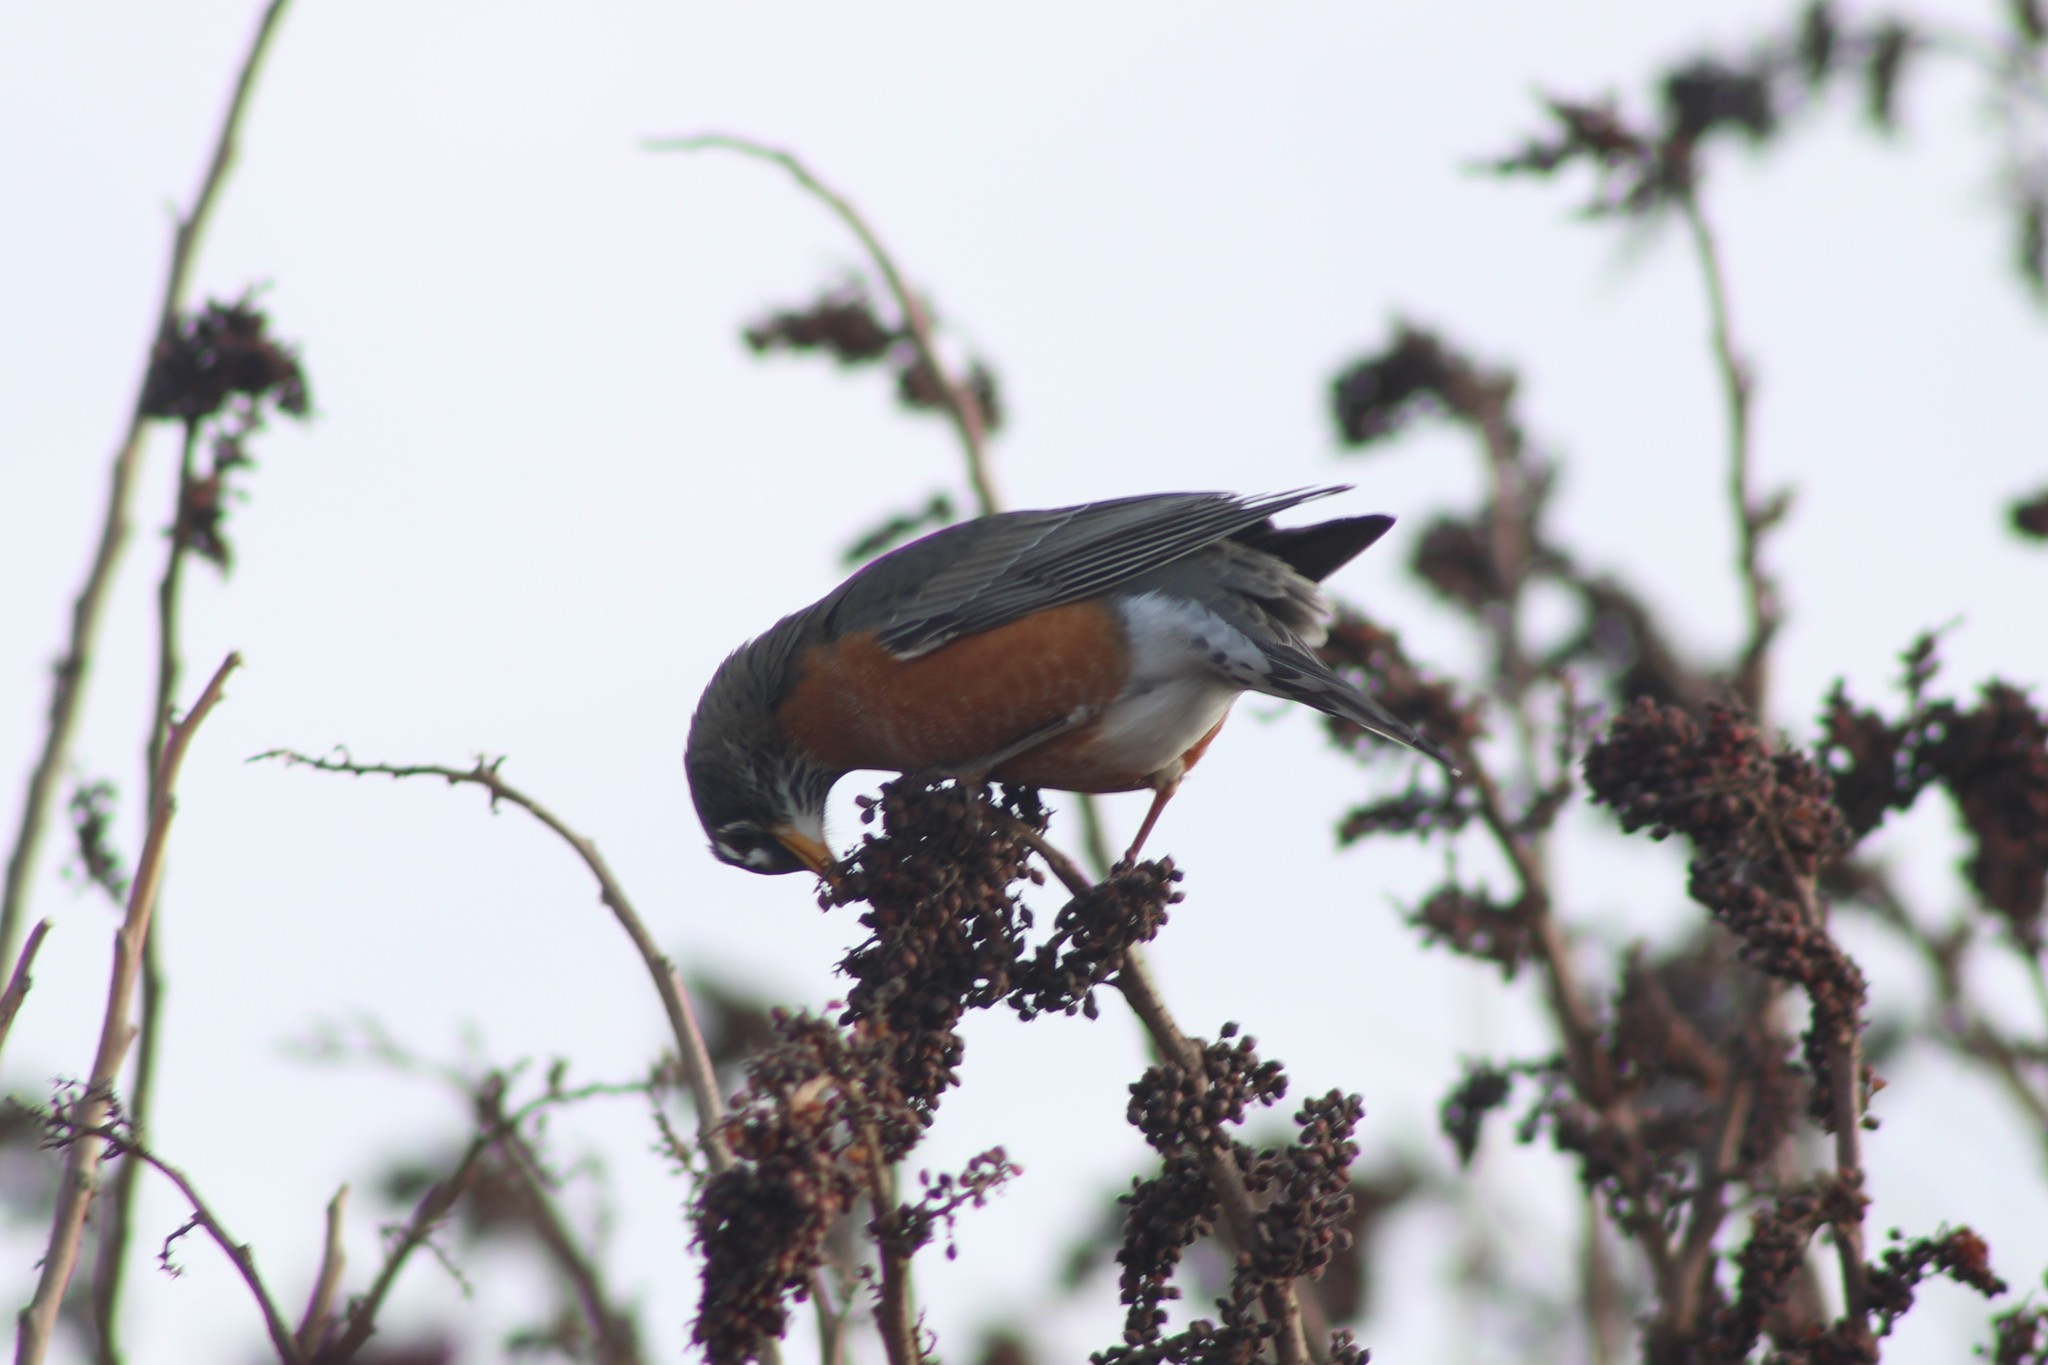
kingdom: Animalia
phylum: Chordata
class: Aves
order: Passeriformes
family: Turdidae
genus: Turdus
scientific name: Turdus migratorius
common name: American robin
